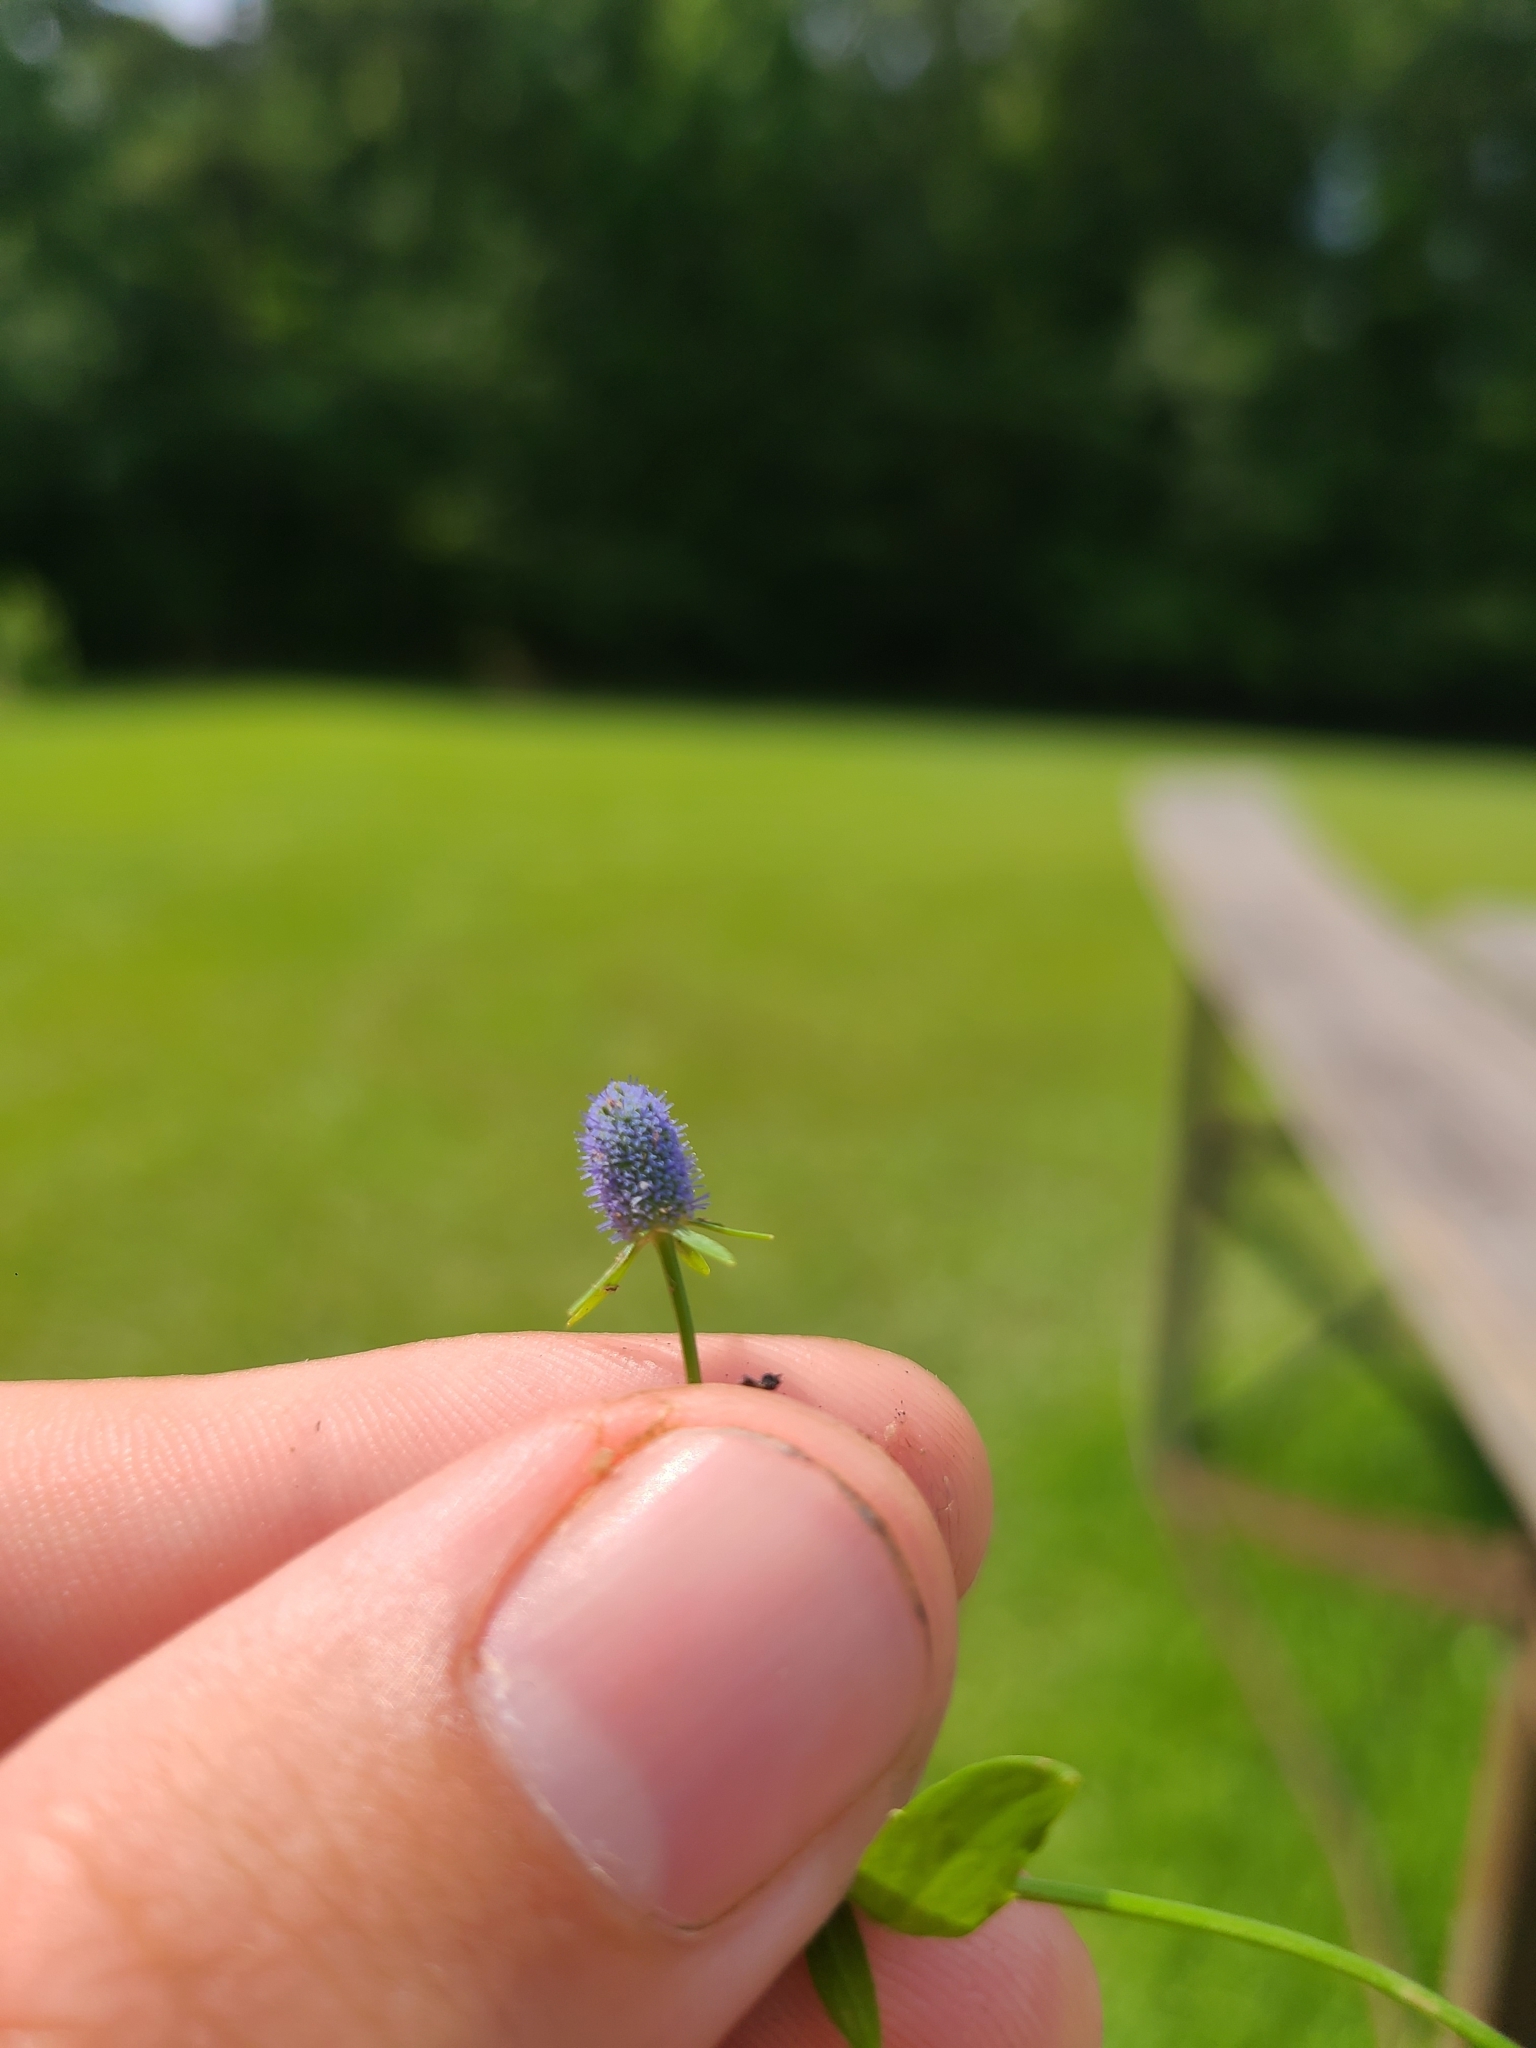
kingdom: Plantae
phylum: Tracheophyta
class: Magnoliopsida
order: Apiales
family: Apiaceae
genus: Eryngium
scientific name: Eryngium prostratum
